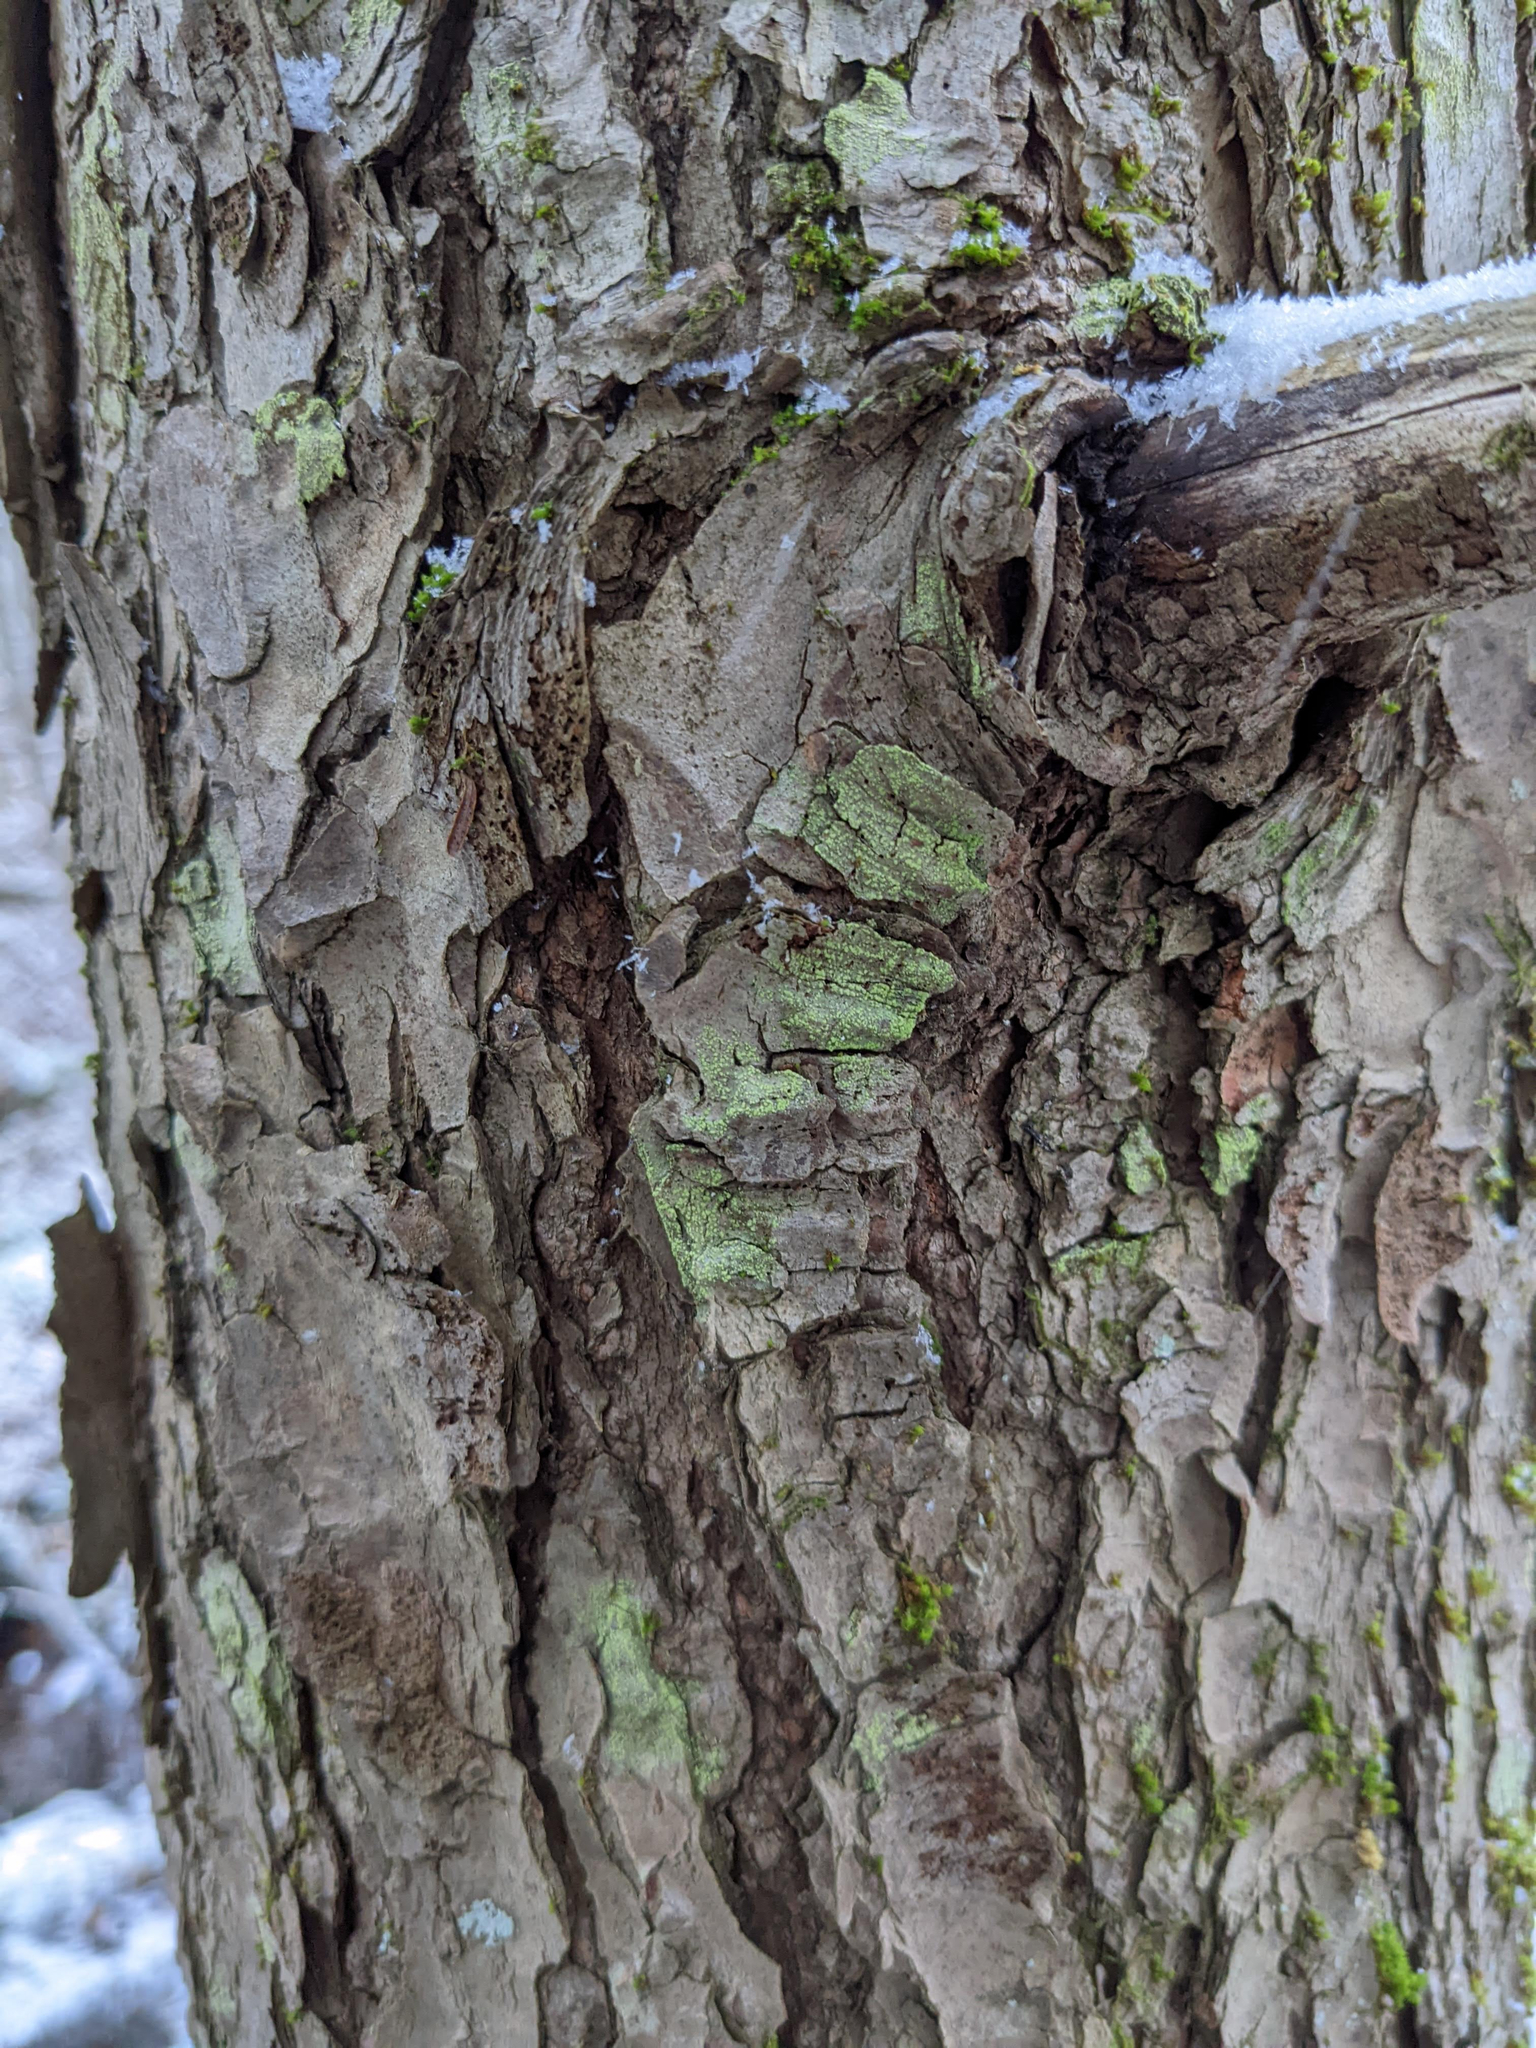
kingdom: Plantae
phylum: Tracheophyta
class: Pinopsida
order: Pinales
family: Pinaceae
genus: Tsuga
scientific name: Tsuga canadensis
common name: Eastern hemlock
